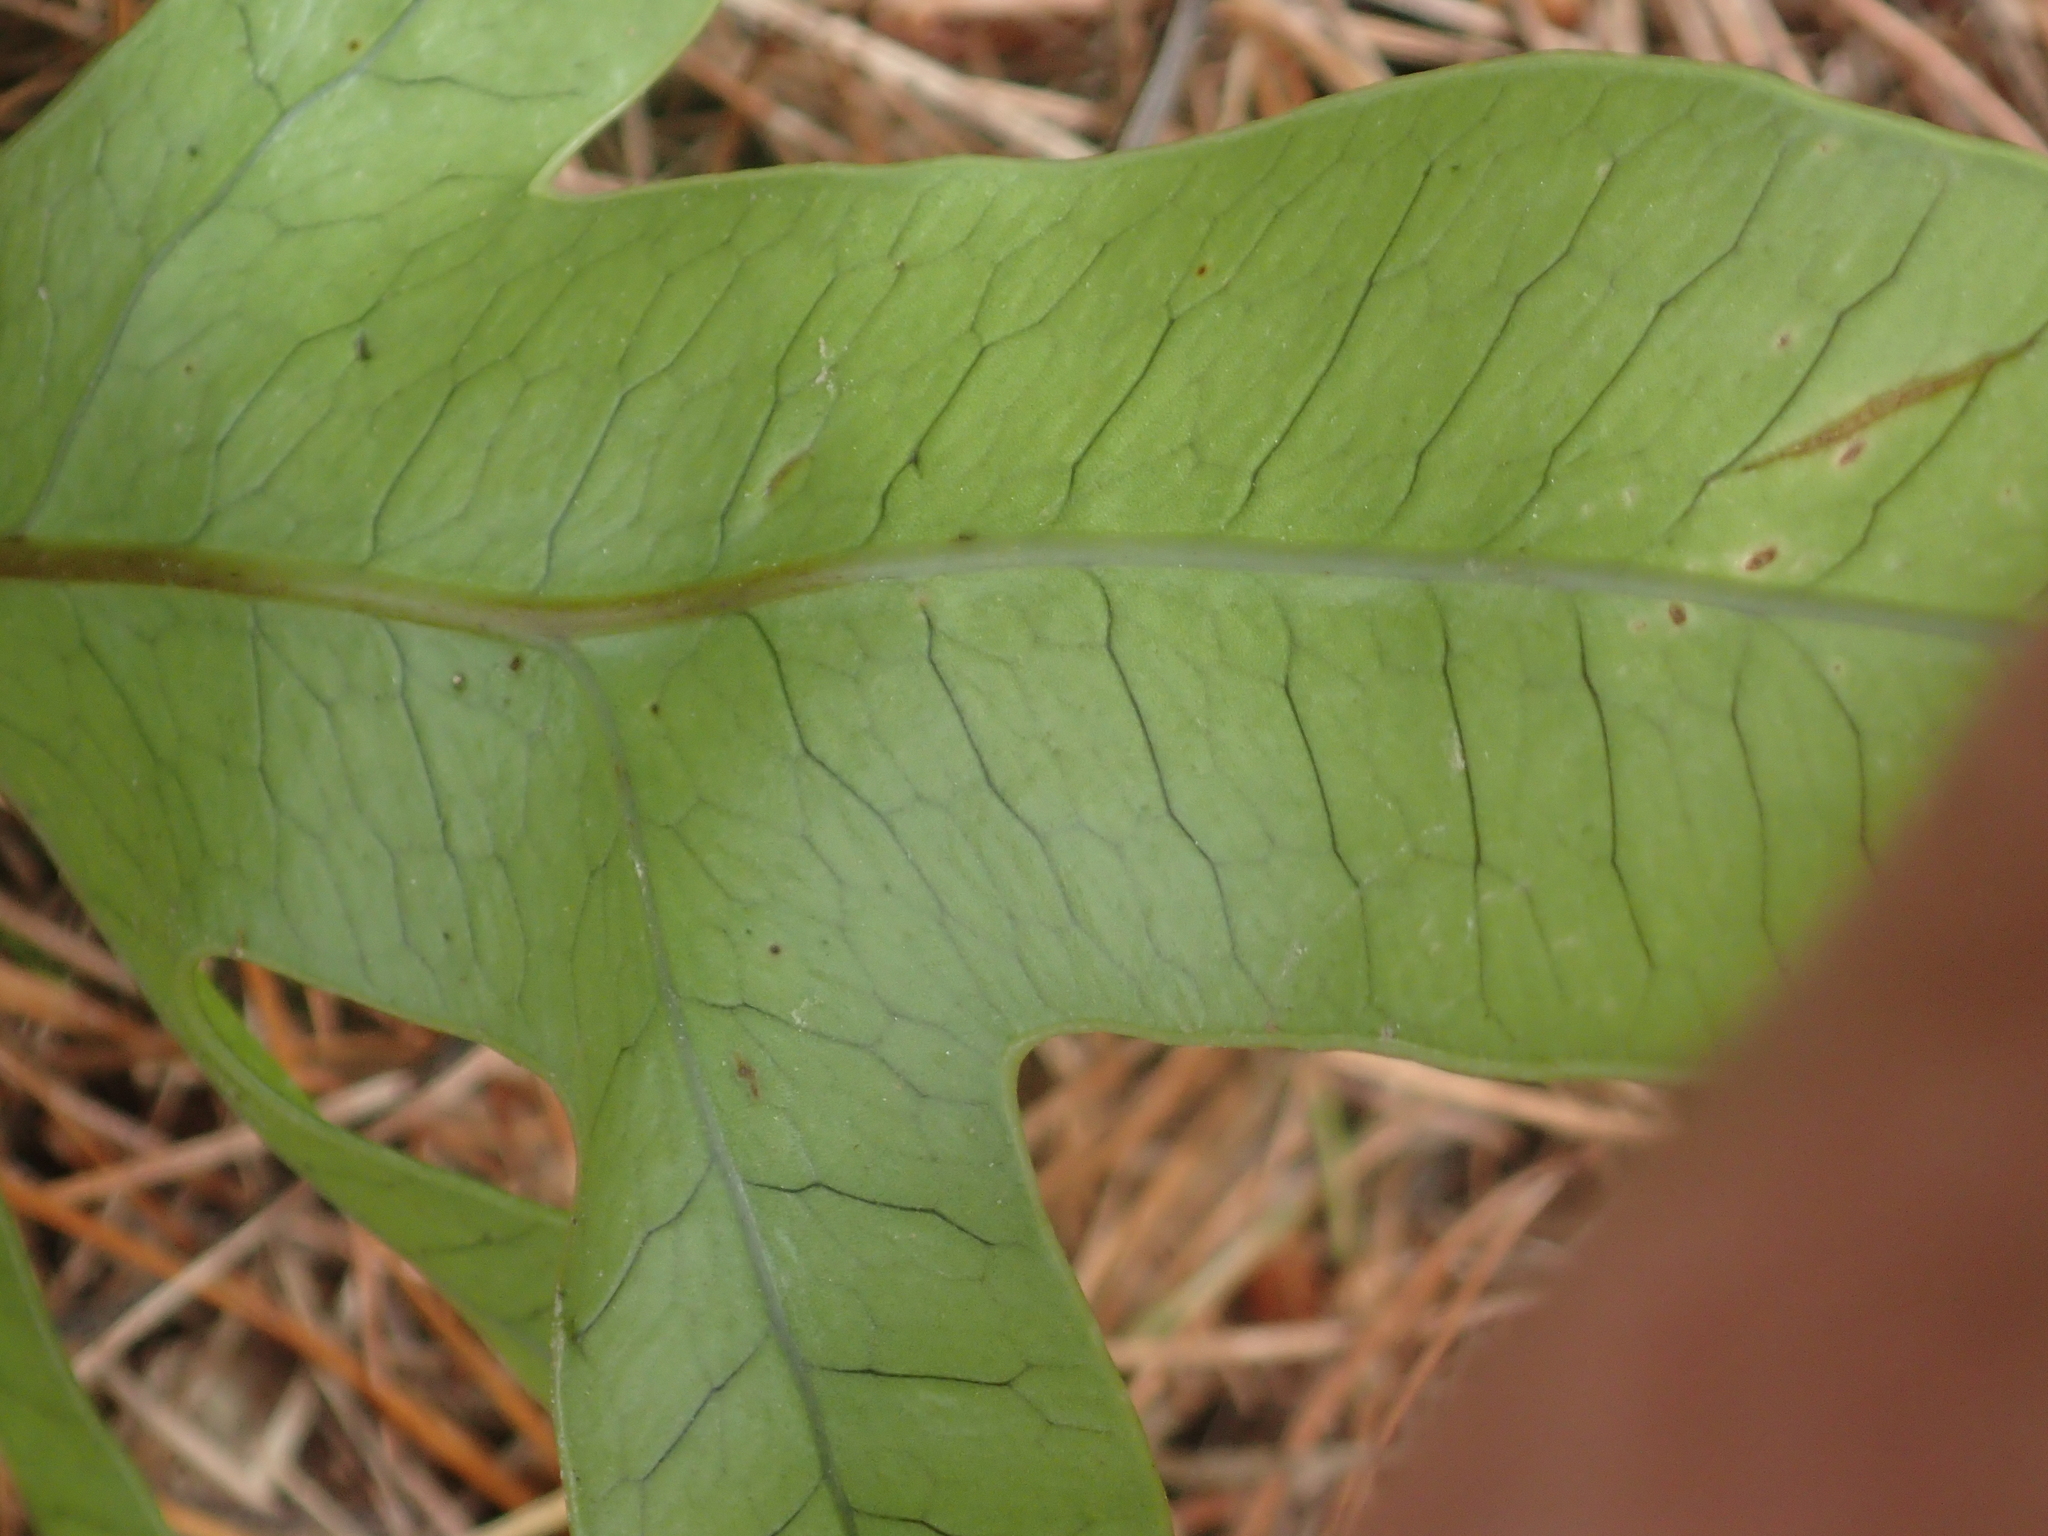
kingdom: Plantae
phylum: Tracheophyta
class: Polypodiopsida
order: Polypodiales
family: Polypodiaceae
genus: Lecanopteris
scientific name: Lecanopteris pustulata
